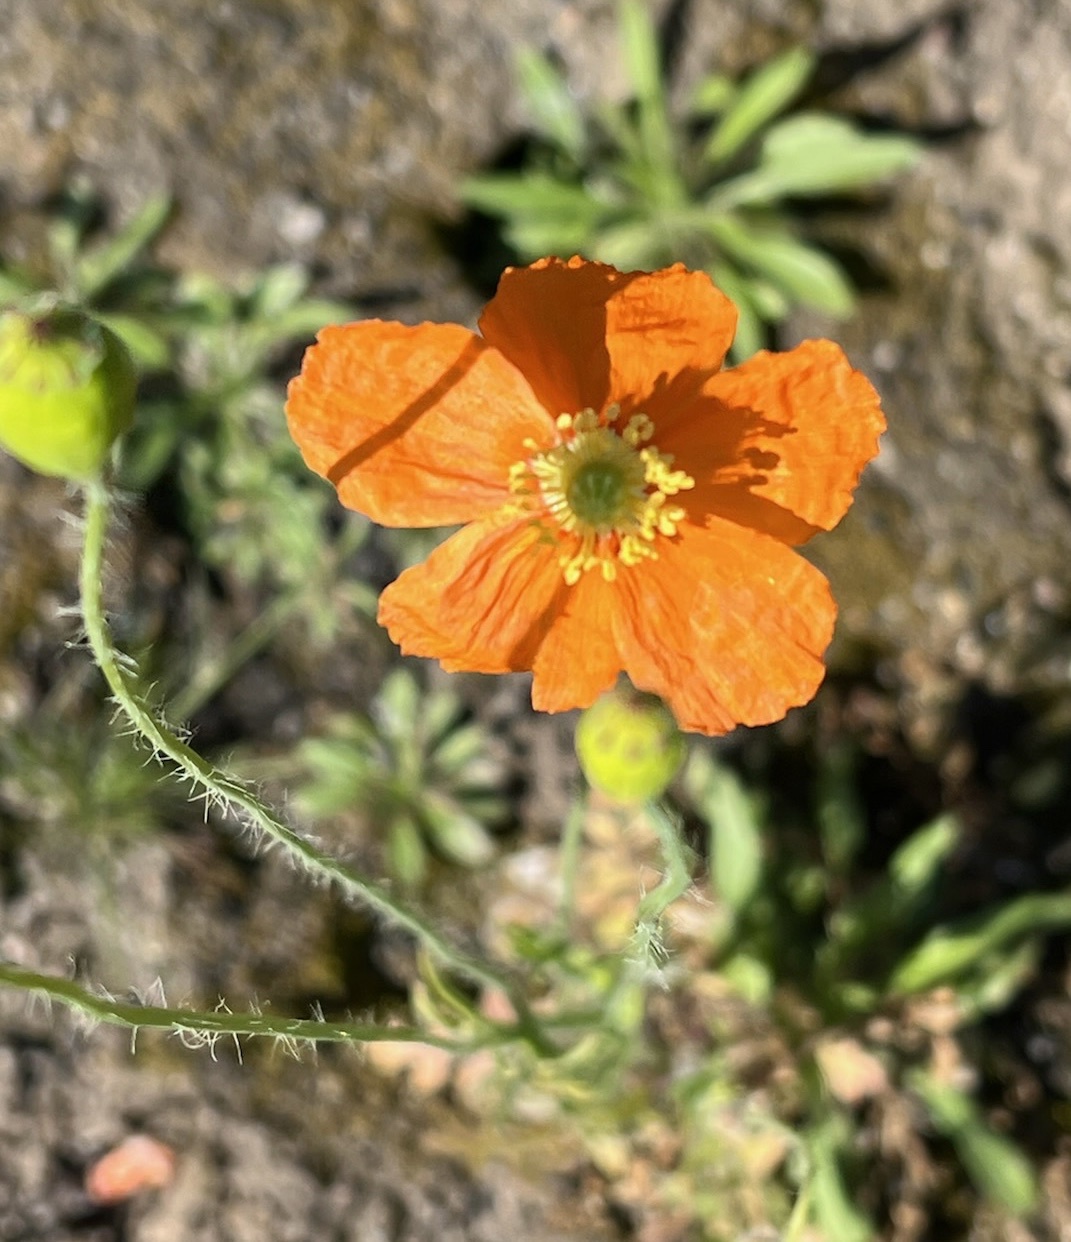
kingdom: Plantae
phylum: Tracheophyta
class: Magnoliopsida
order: Ranunculales
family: Papaveraceae
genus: Papaver
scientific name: Papaver californicum
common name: Fire poppy
